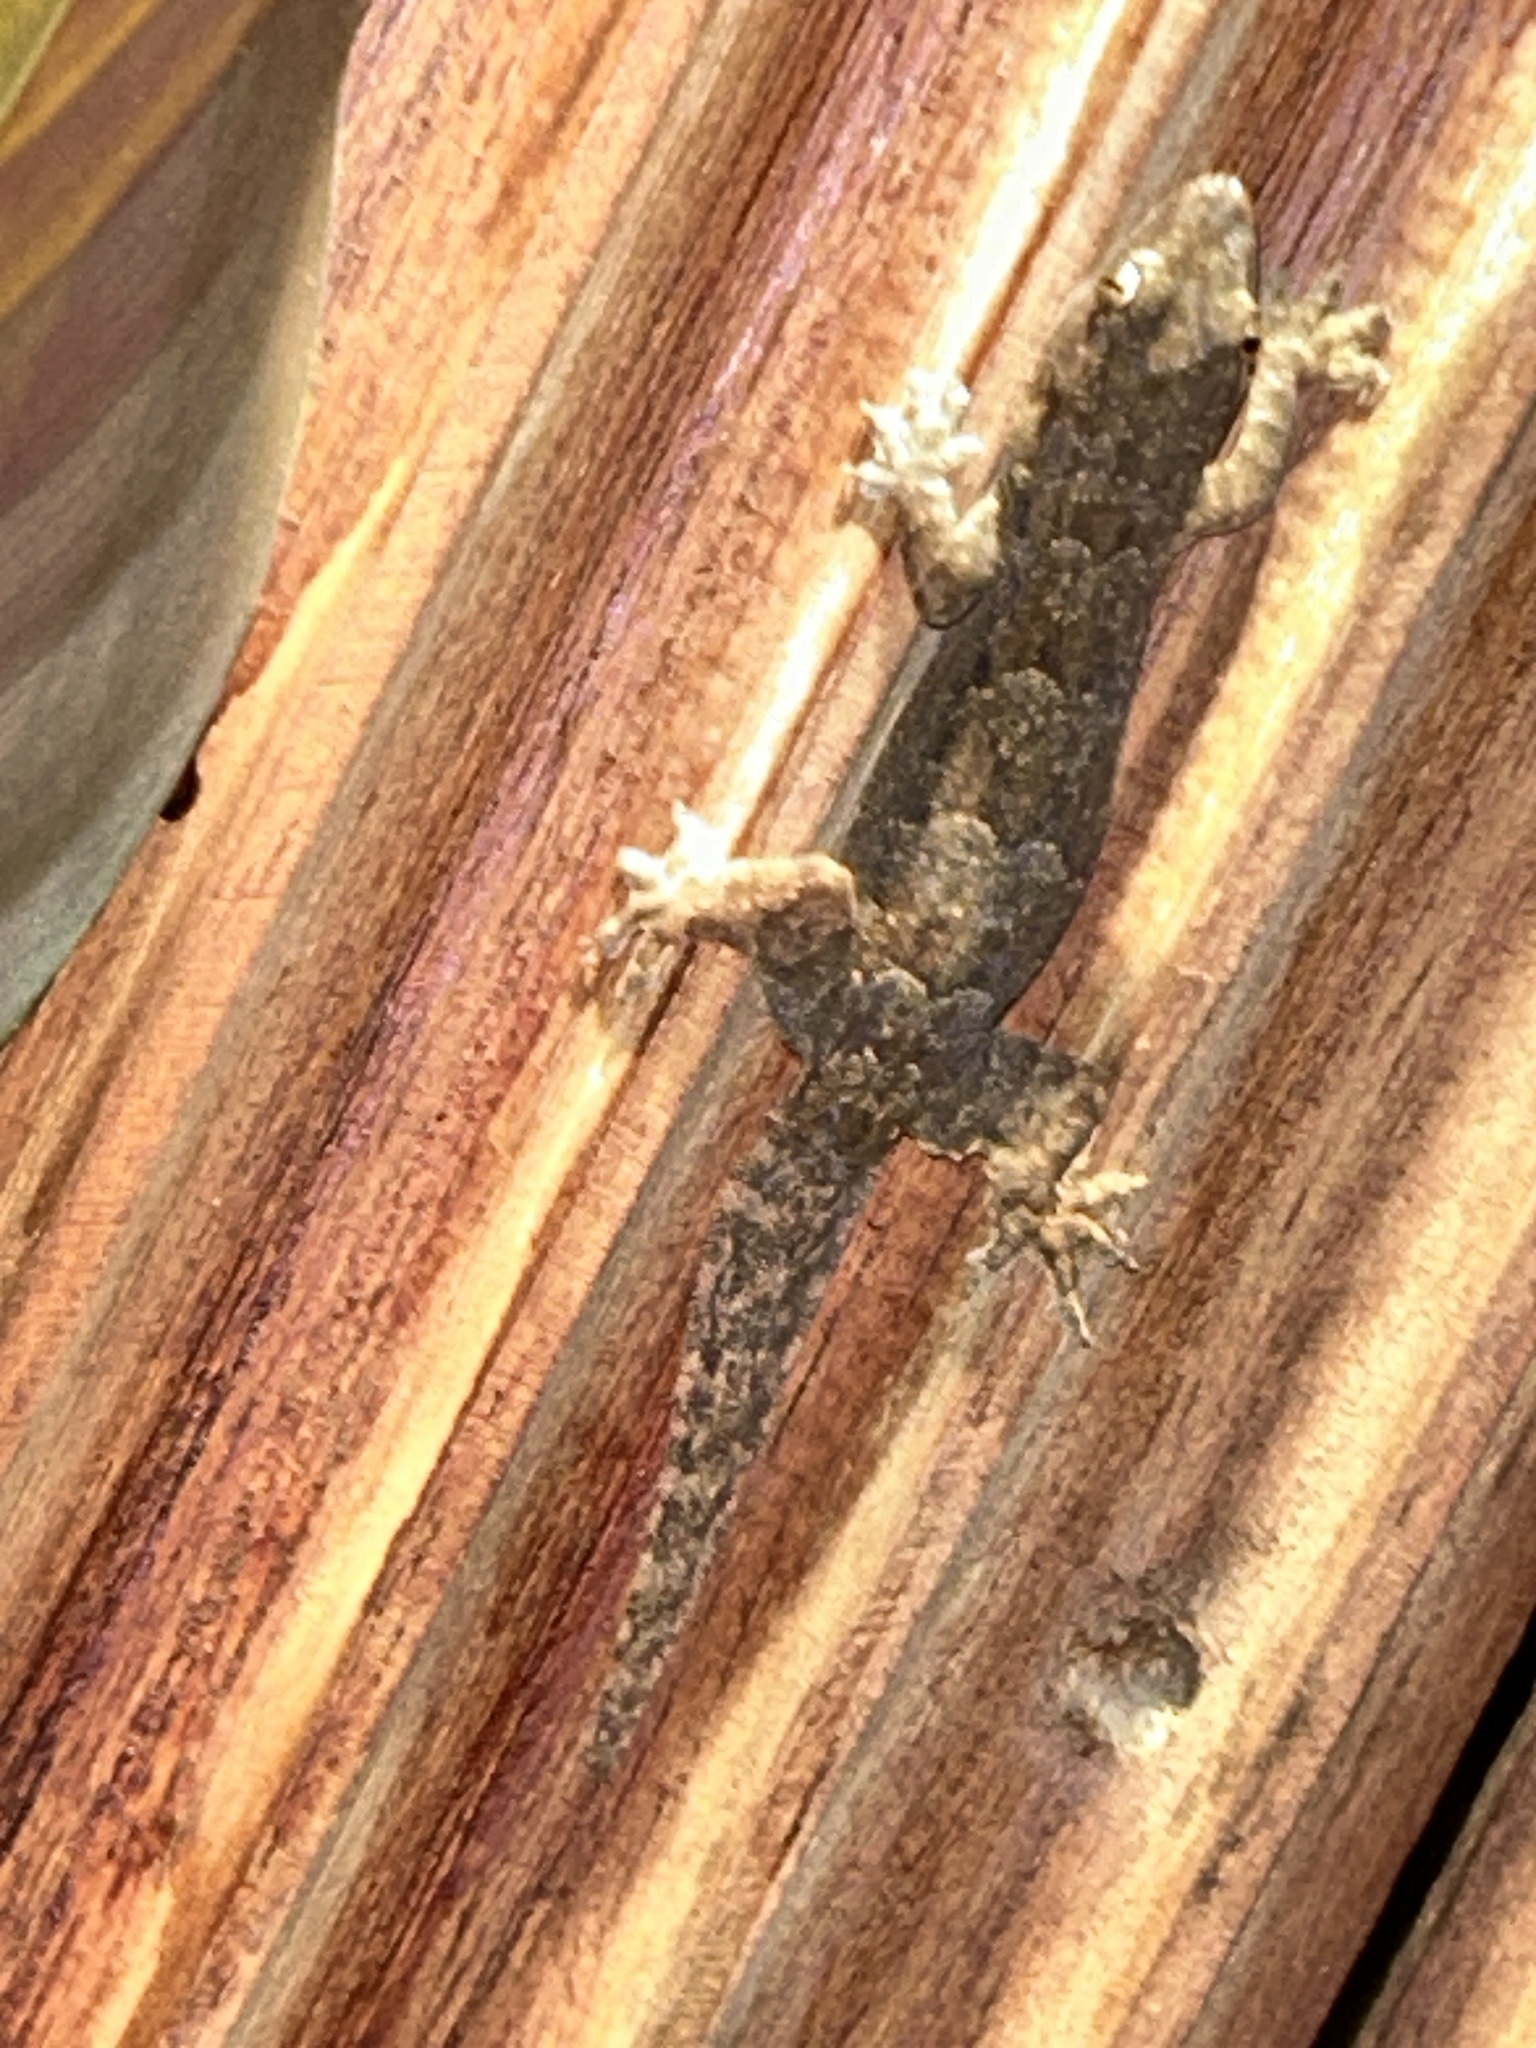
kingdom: Animalia
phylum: Chordata
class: Squamata
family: Gekkonidae
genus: Hemidactylus
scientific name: Hemidactylus platyurus
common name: Flat-tailed house gecko
